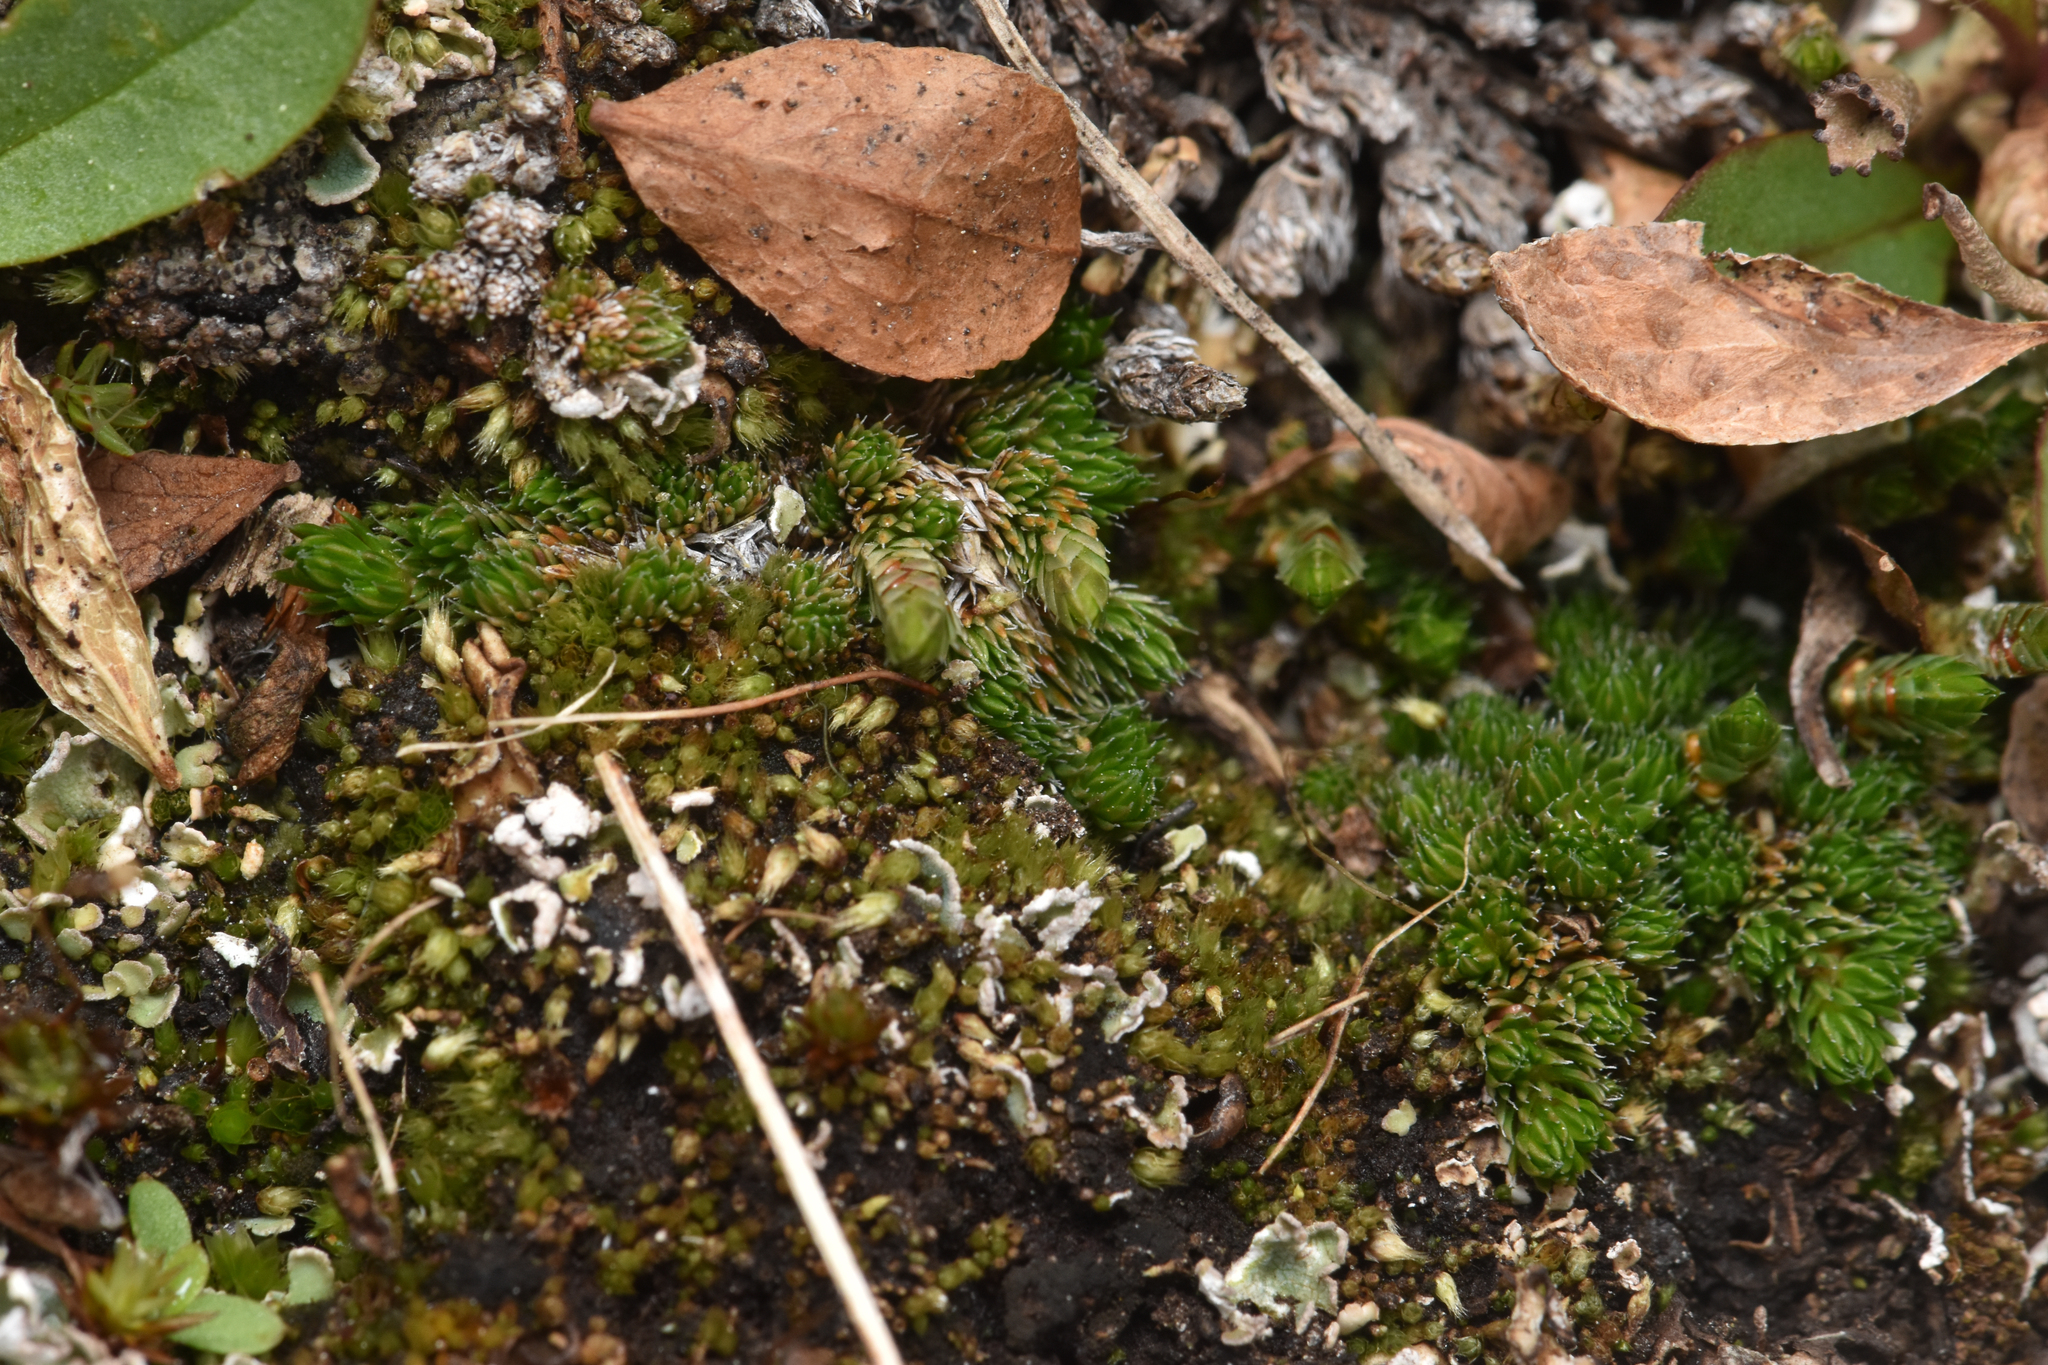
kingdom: Plantae
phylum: Tracheophyta
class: Lycopodiopsida
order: Selaginellales
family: Selaginellaceae
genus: Selaginella
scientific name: Selaginella densa
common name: Mountain spike-moss
